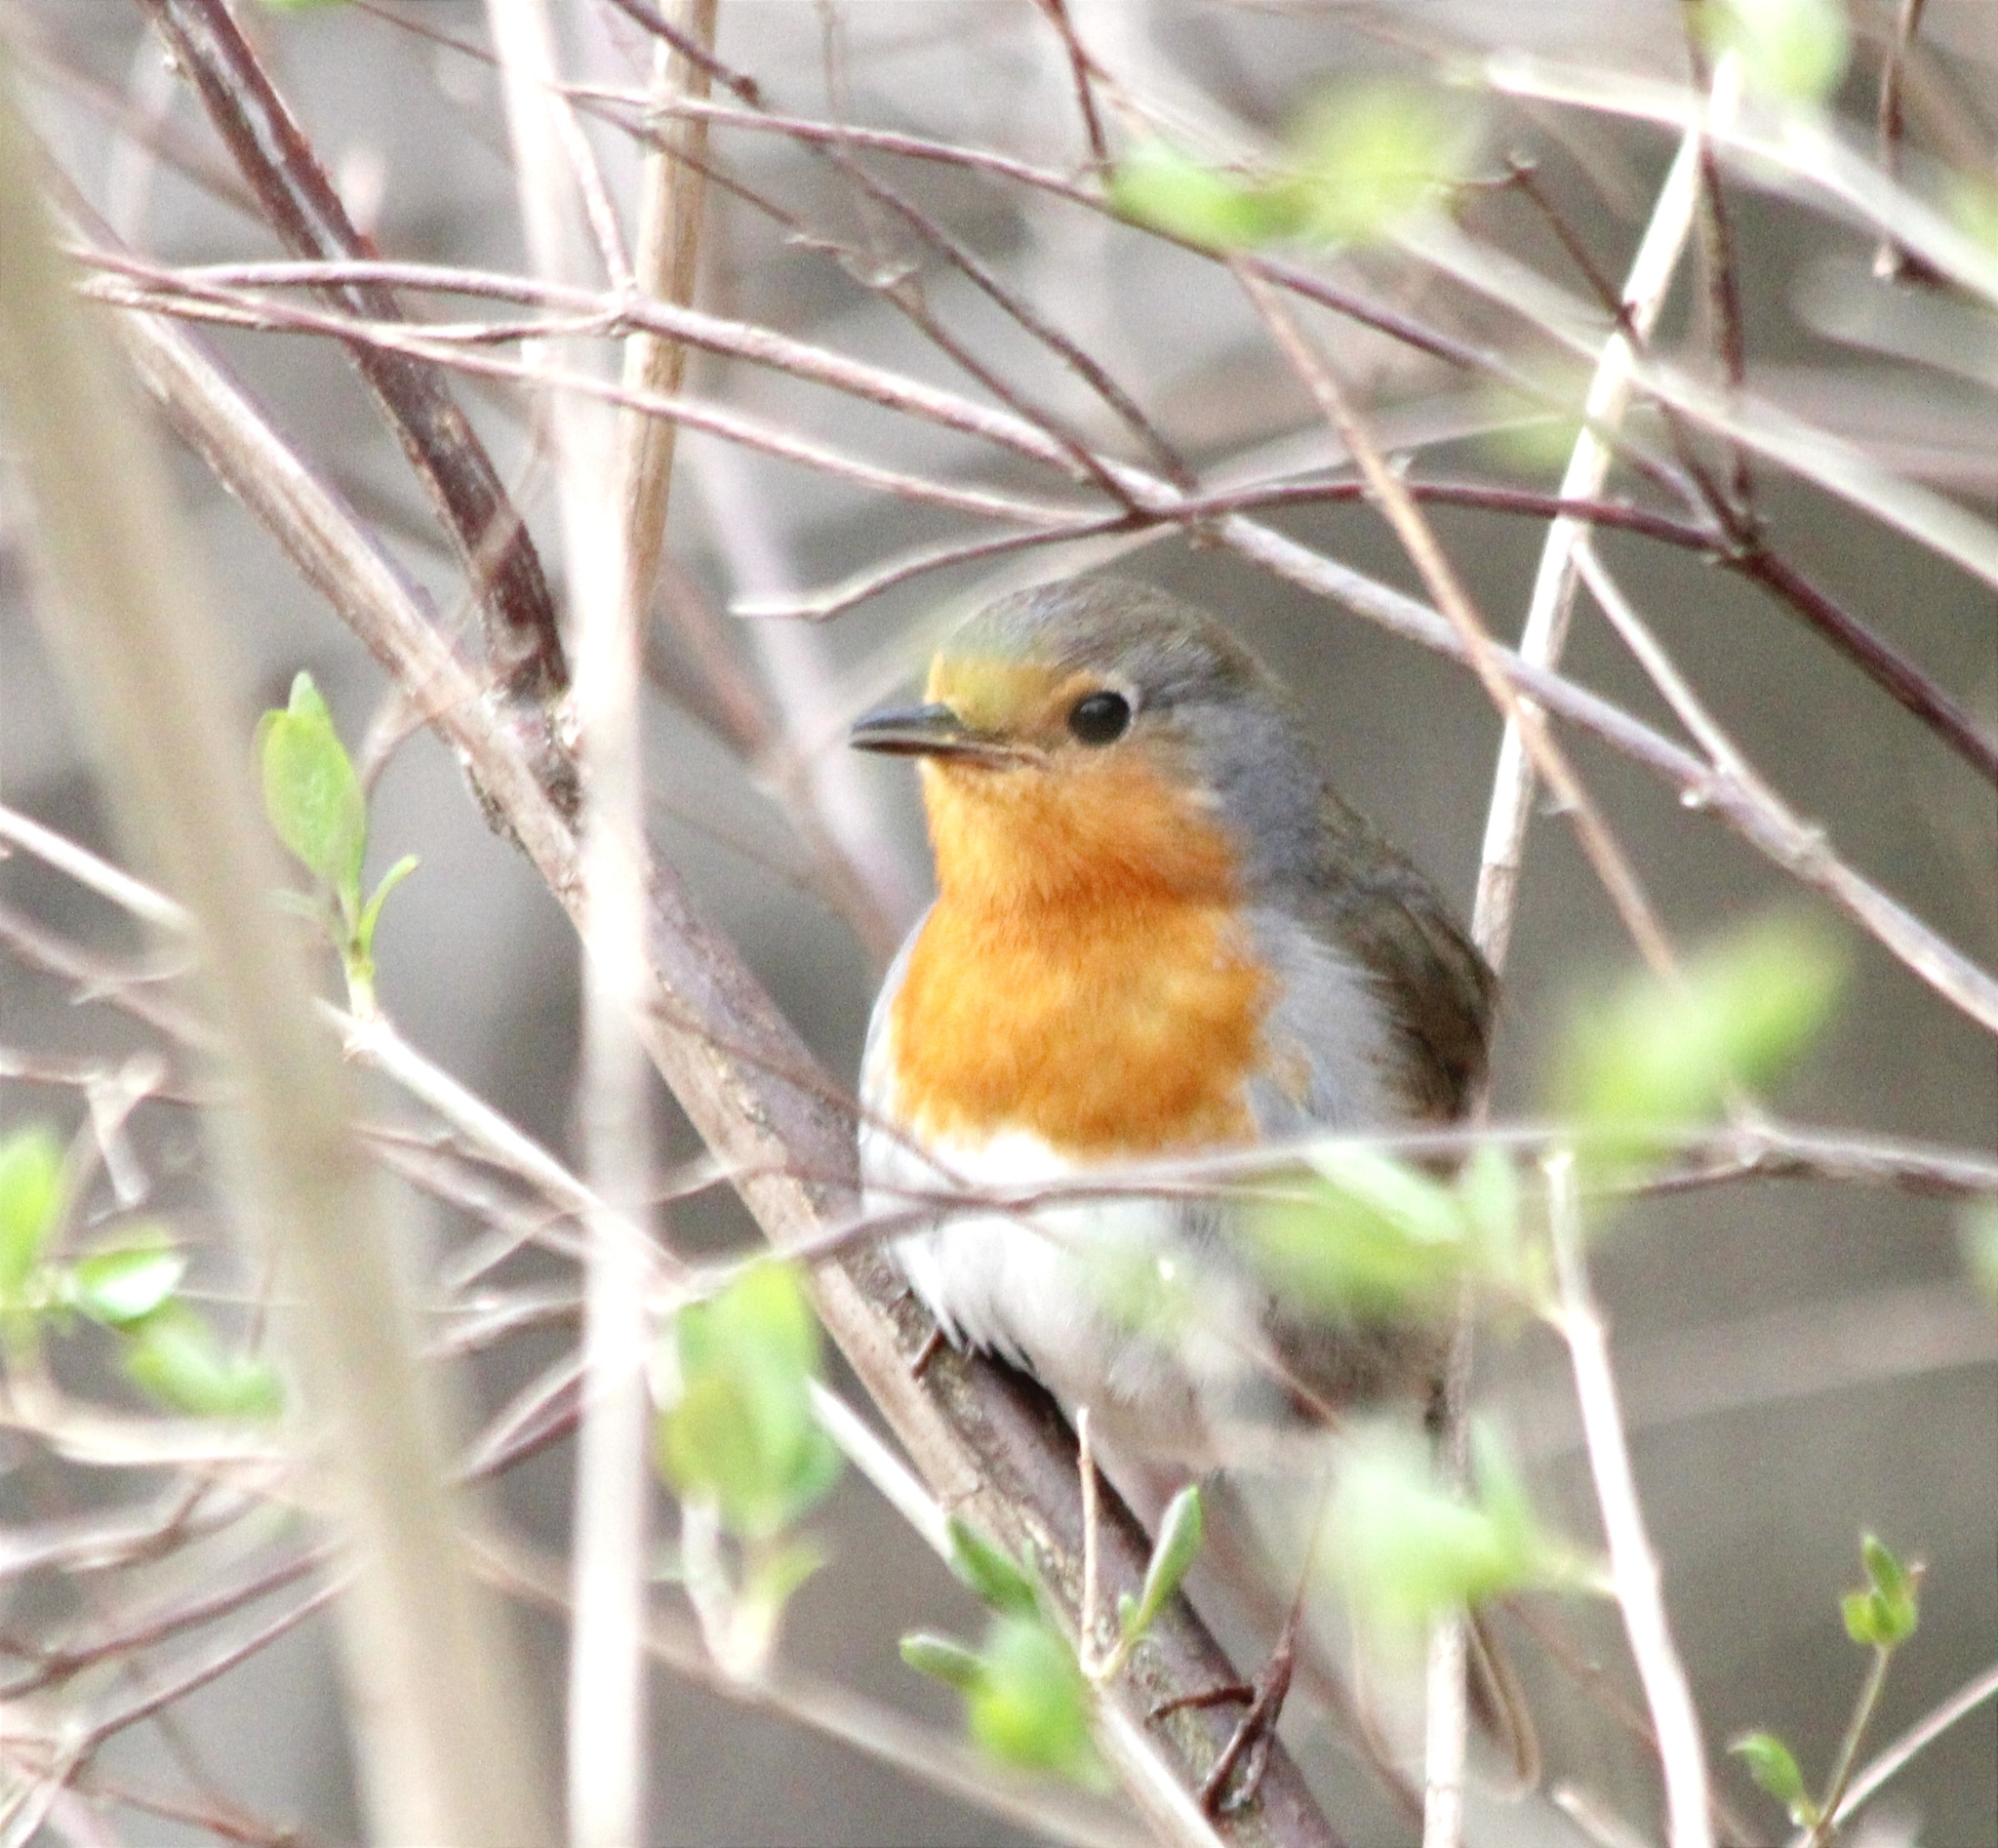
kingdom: Animalia
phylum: Chordata
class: Aves
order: Passeriformes
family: Muscicapidae
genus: Erithacus
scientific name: Erithacus rubecula
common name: European robin
